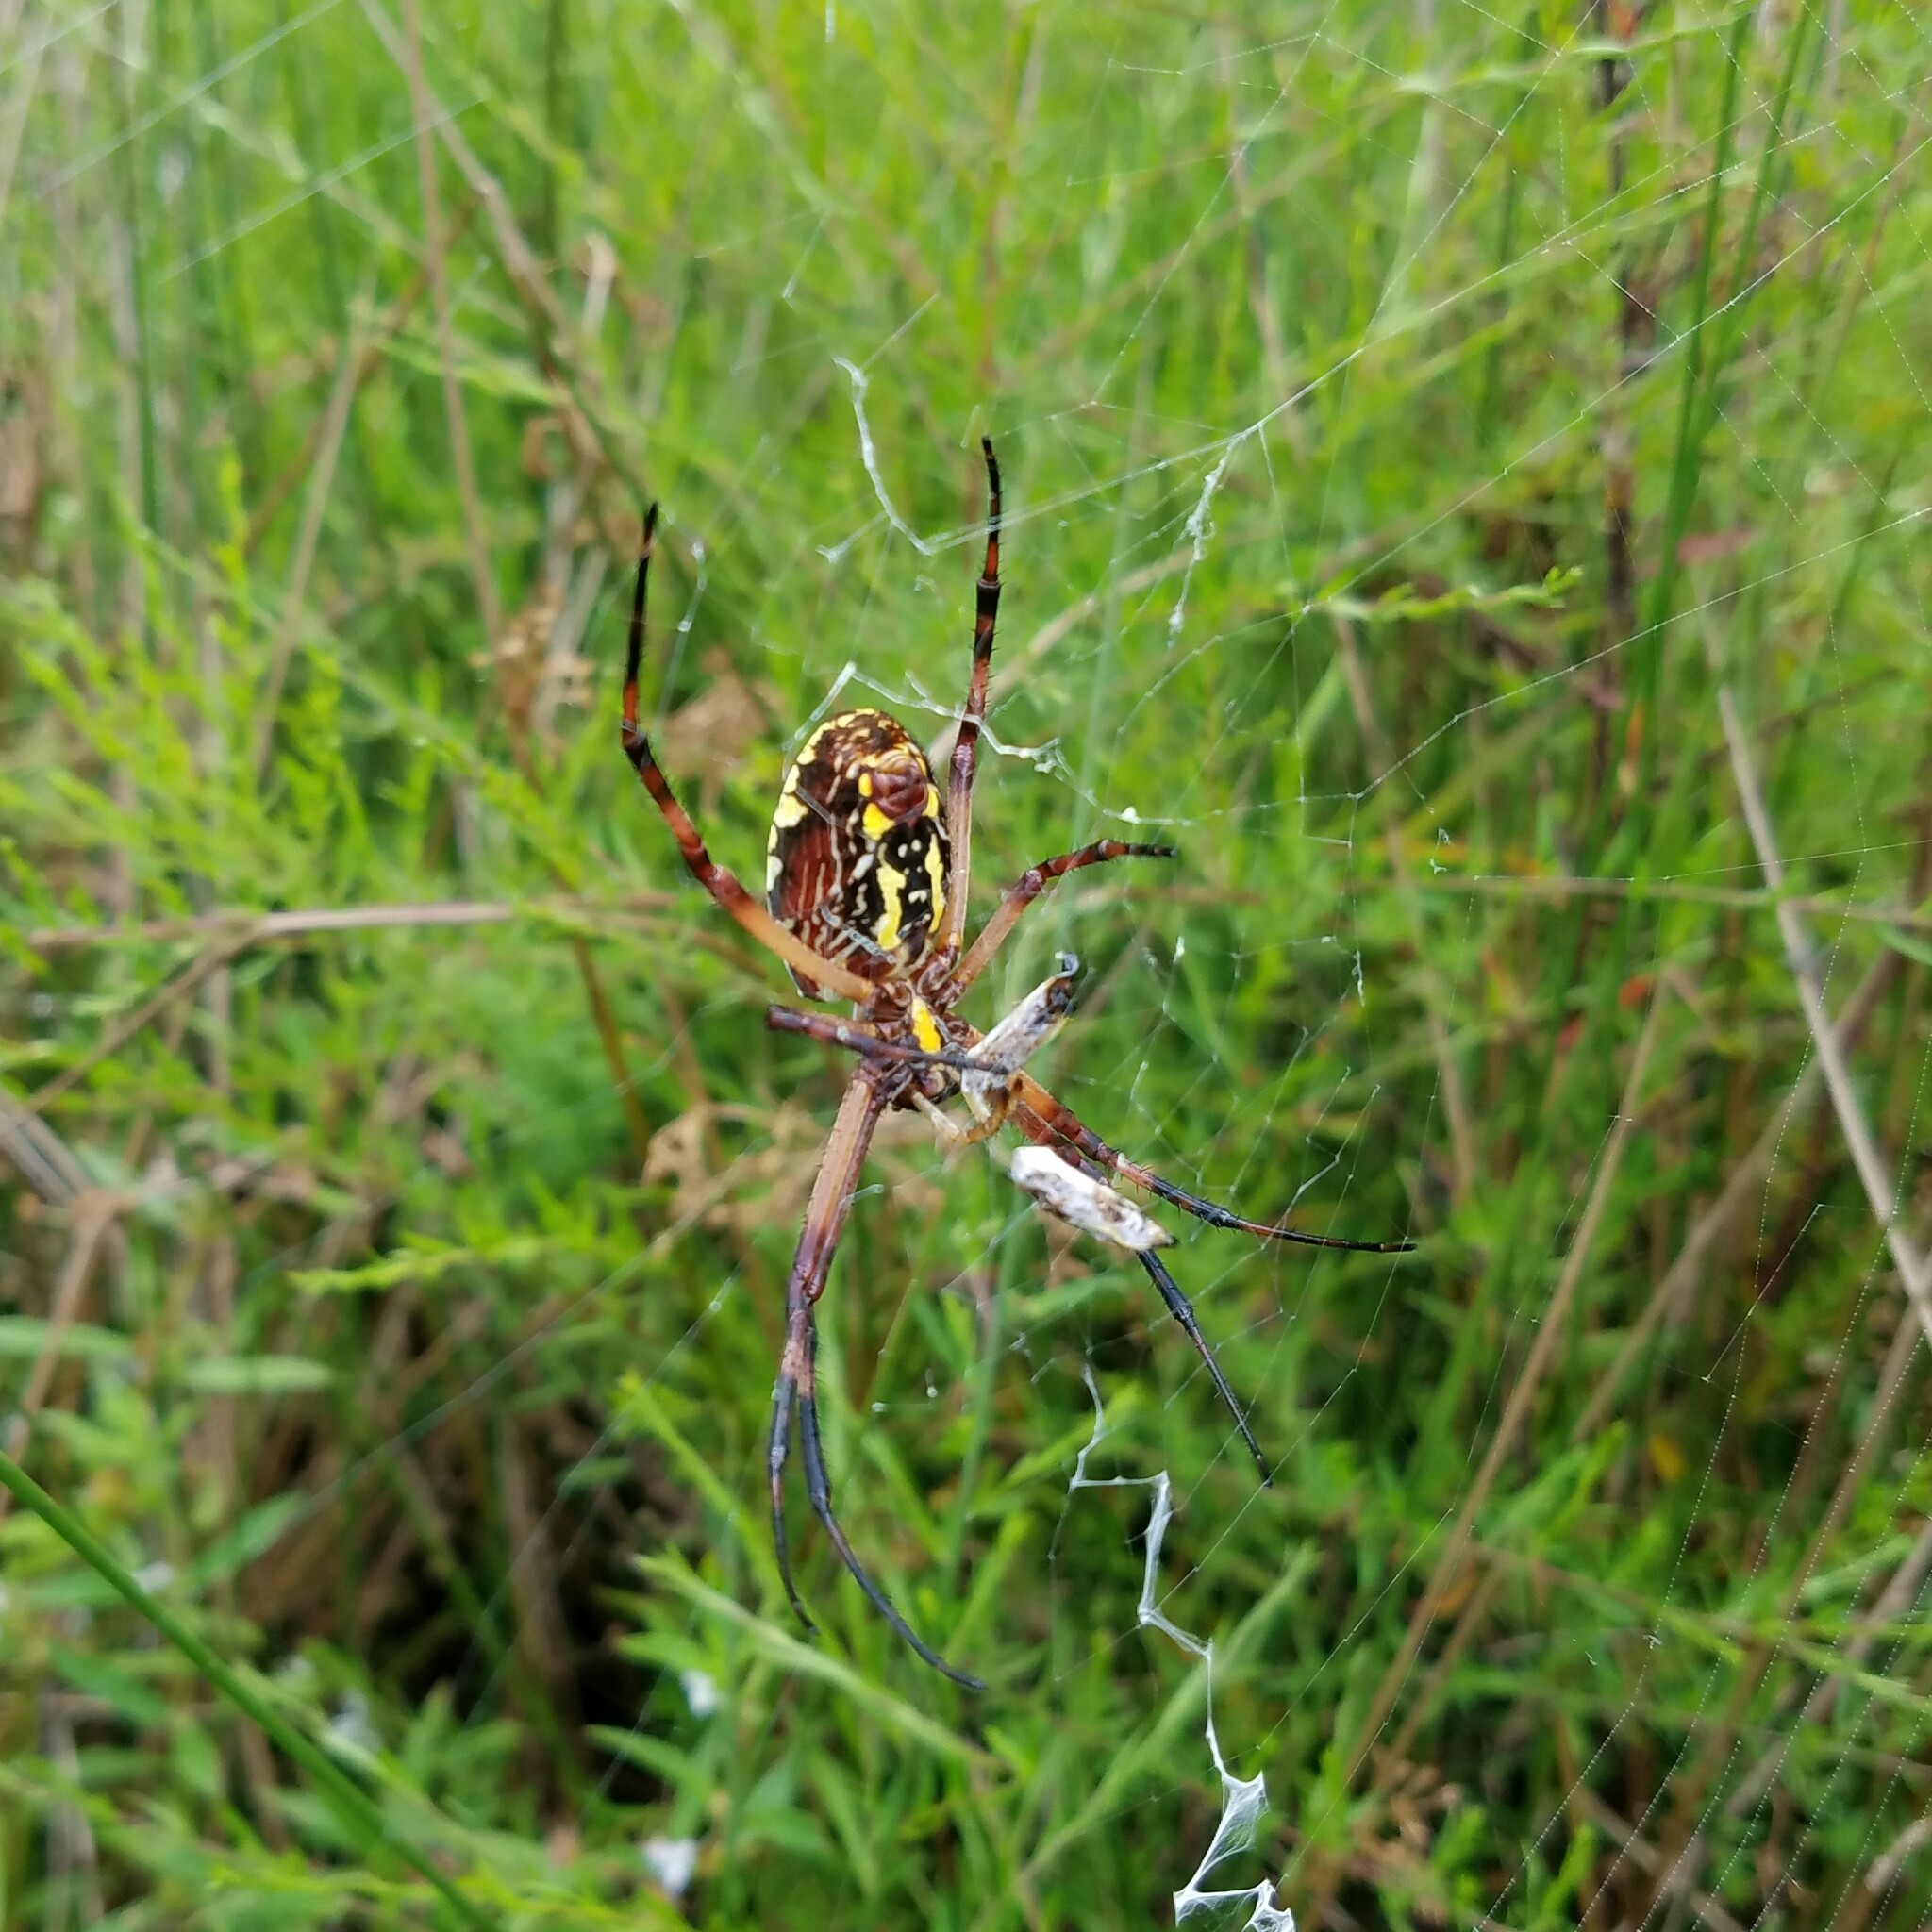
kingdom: Animalia
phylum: Arthropoda
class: Arachnida
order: Araneae
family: Araneidae
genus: Argiope
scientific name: Argiope aurantia
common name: Orb weavers
